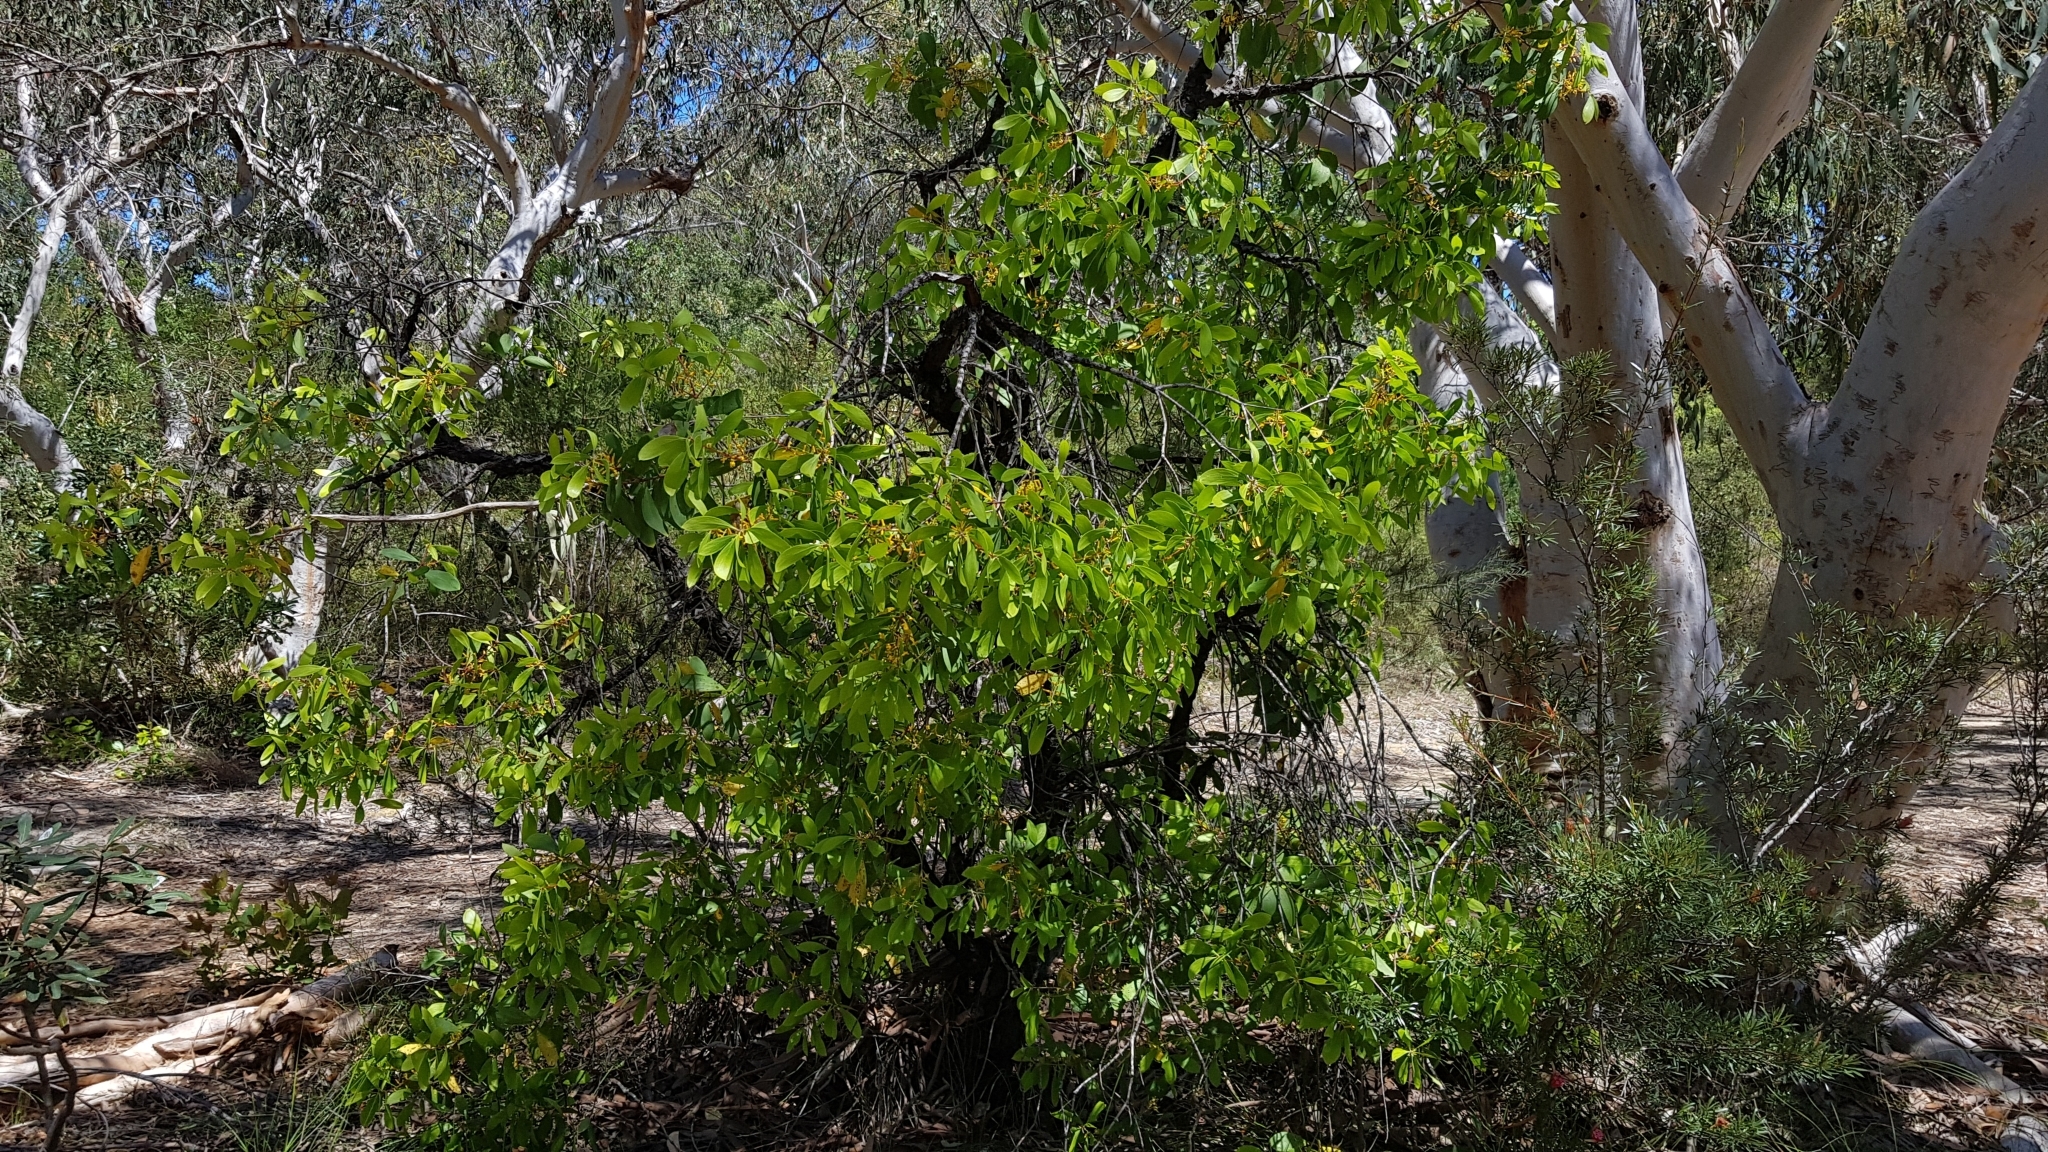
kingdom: Plantae
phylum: Tracheophyta
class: Magnoliopsida
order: Proteales
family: Proteaceae
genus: Persoonia
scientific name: Persoonia levis
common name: Smooth geebung
